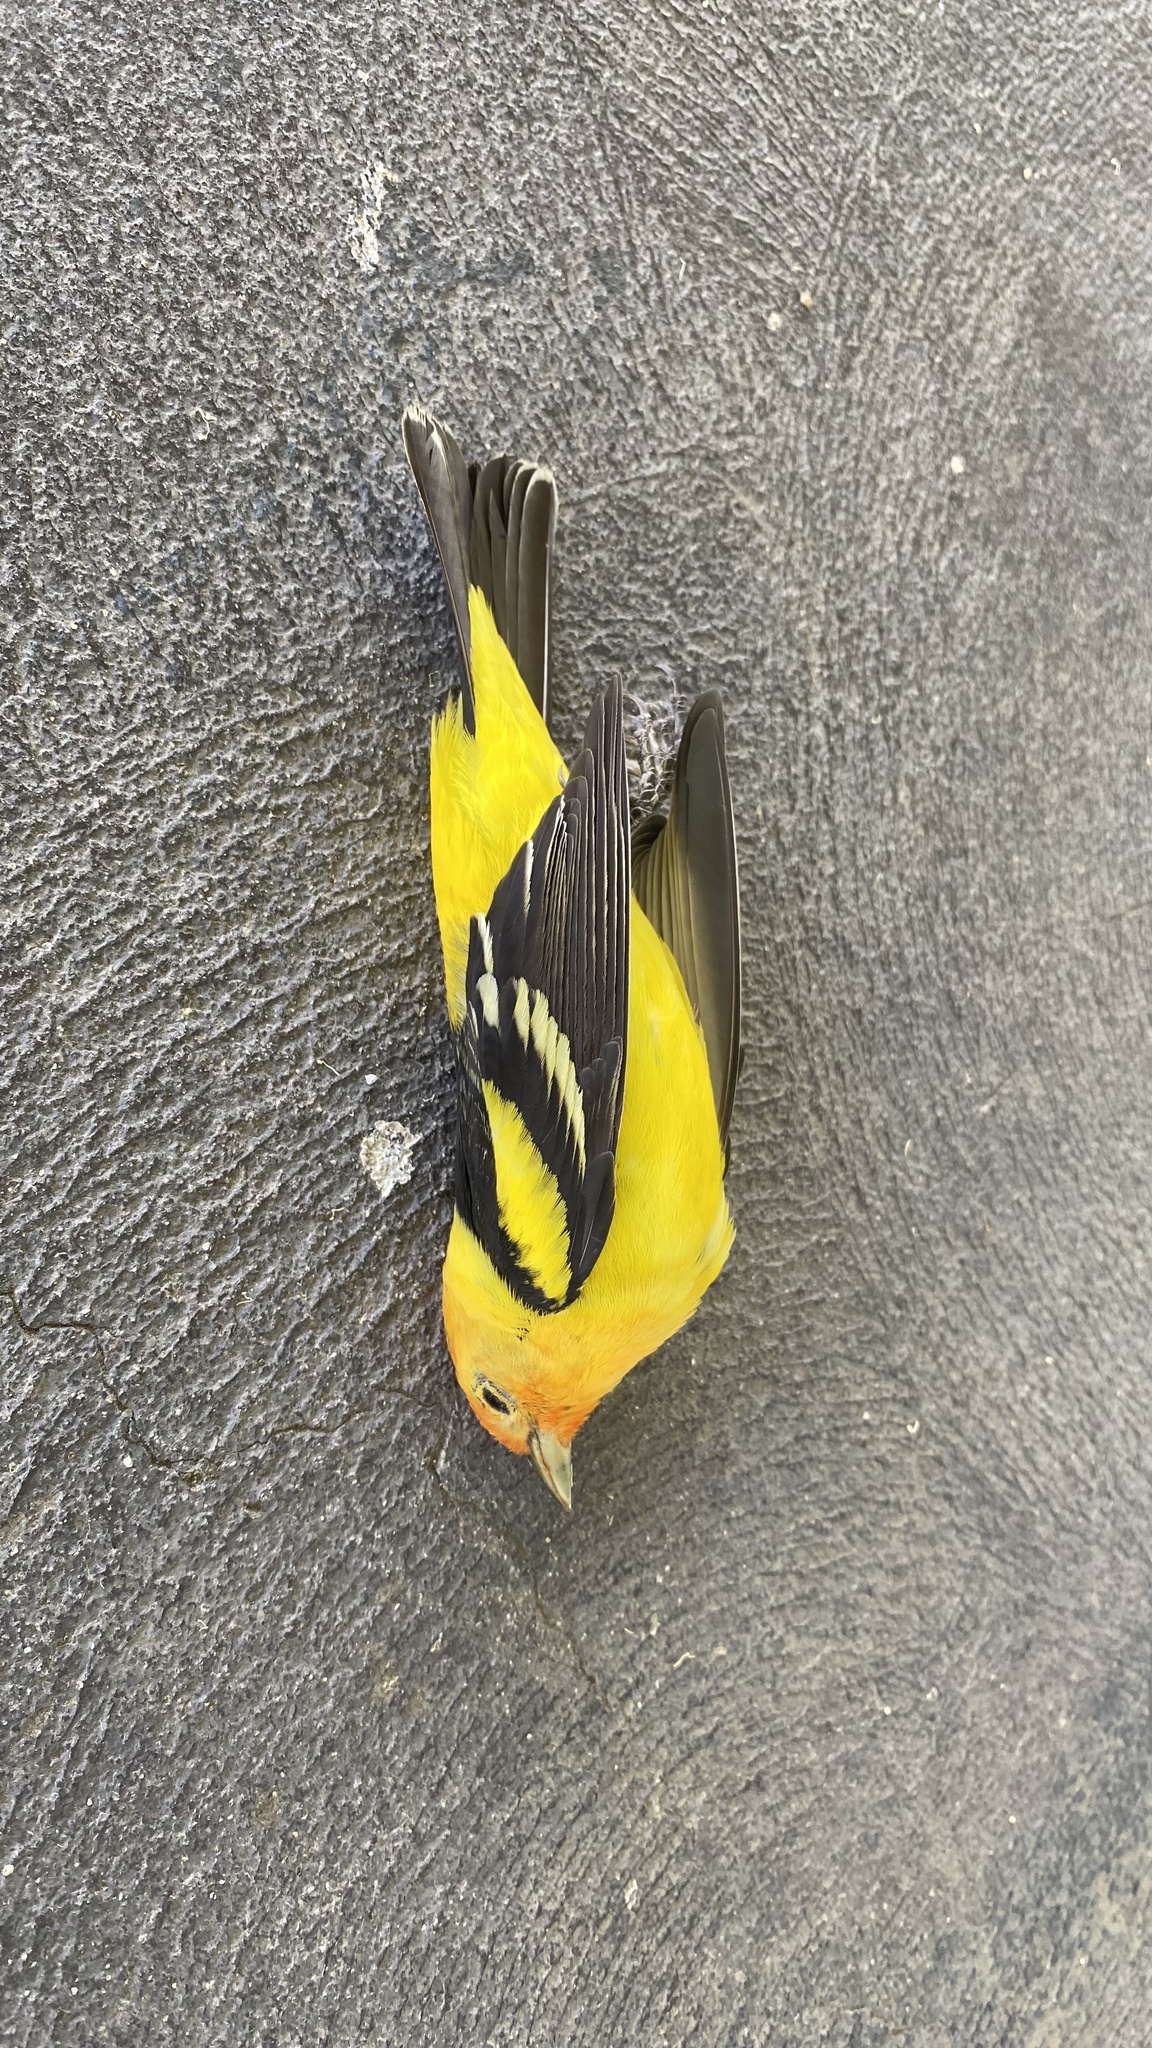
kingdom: Animalia
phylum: Chordata
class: Aves
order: Passeriformes
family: Cardinalidae
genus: Piranga
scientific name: Piranga ludoviciana
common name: Western tanager
